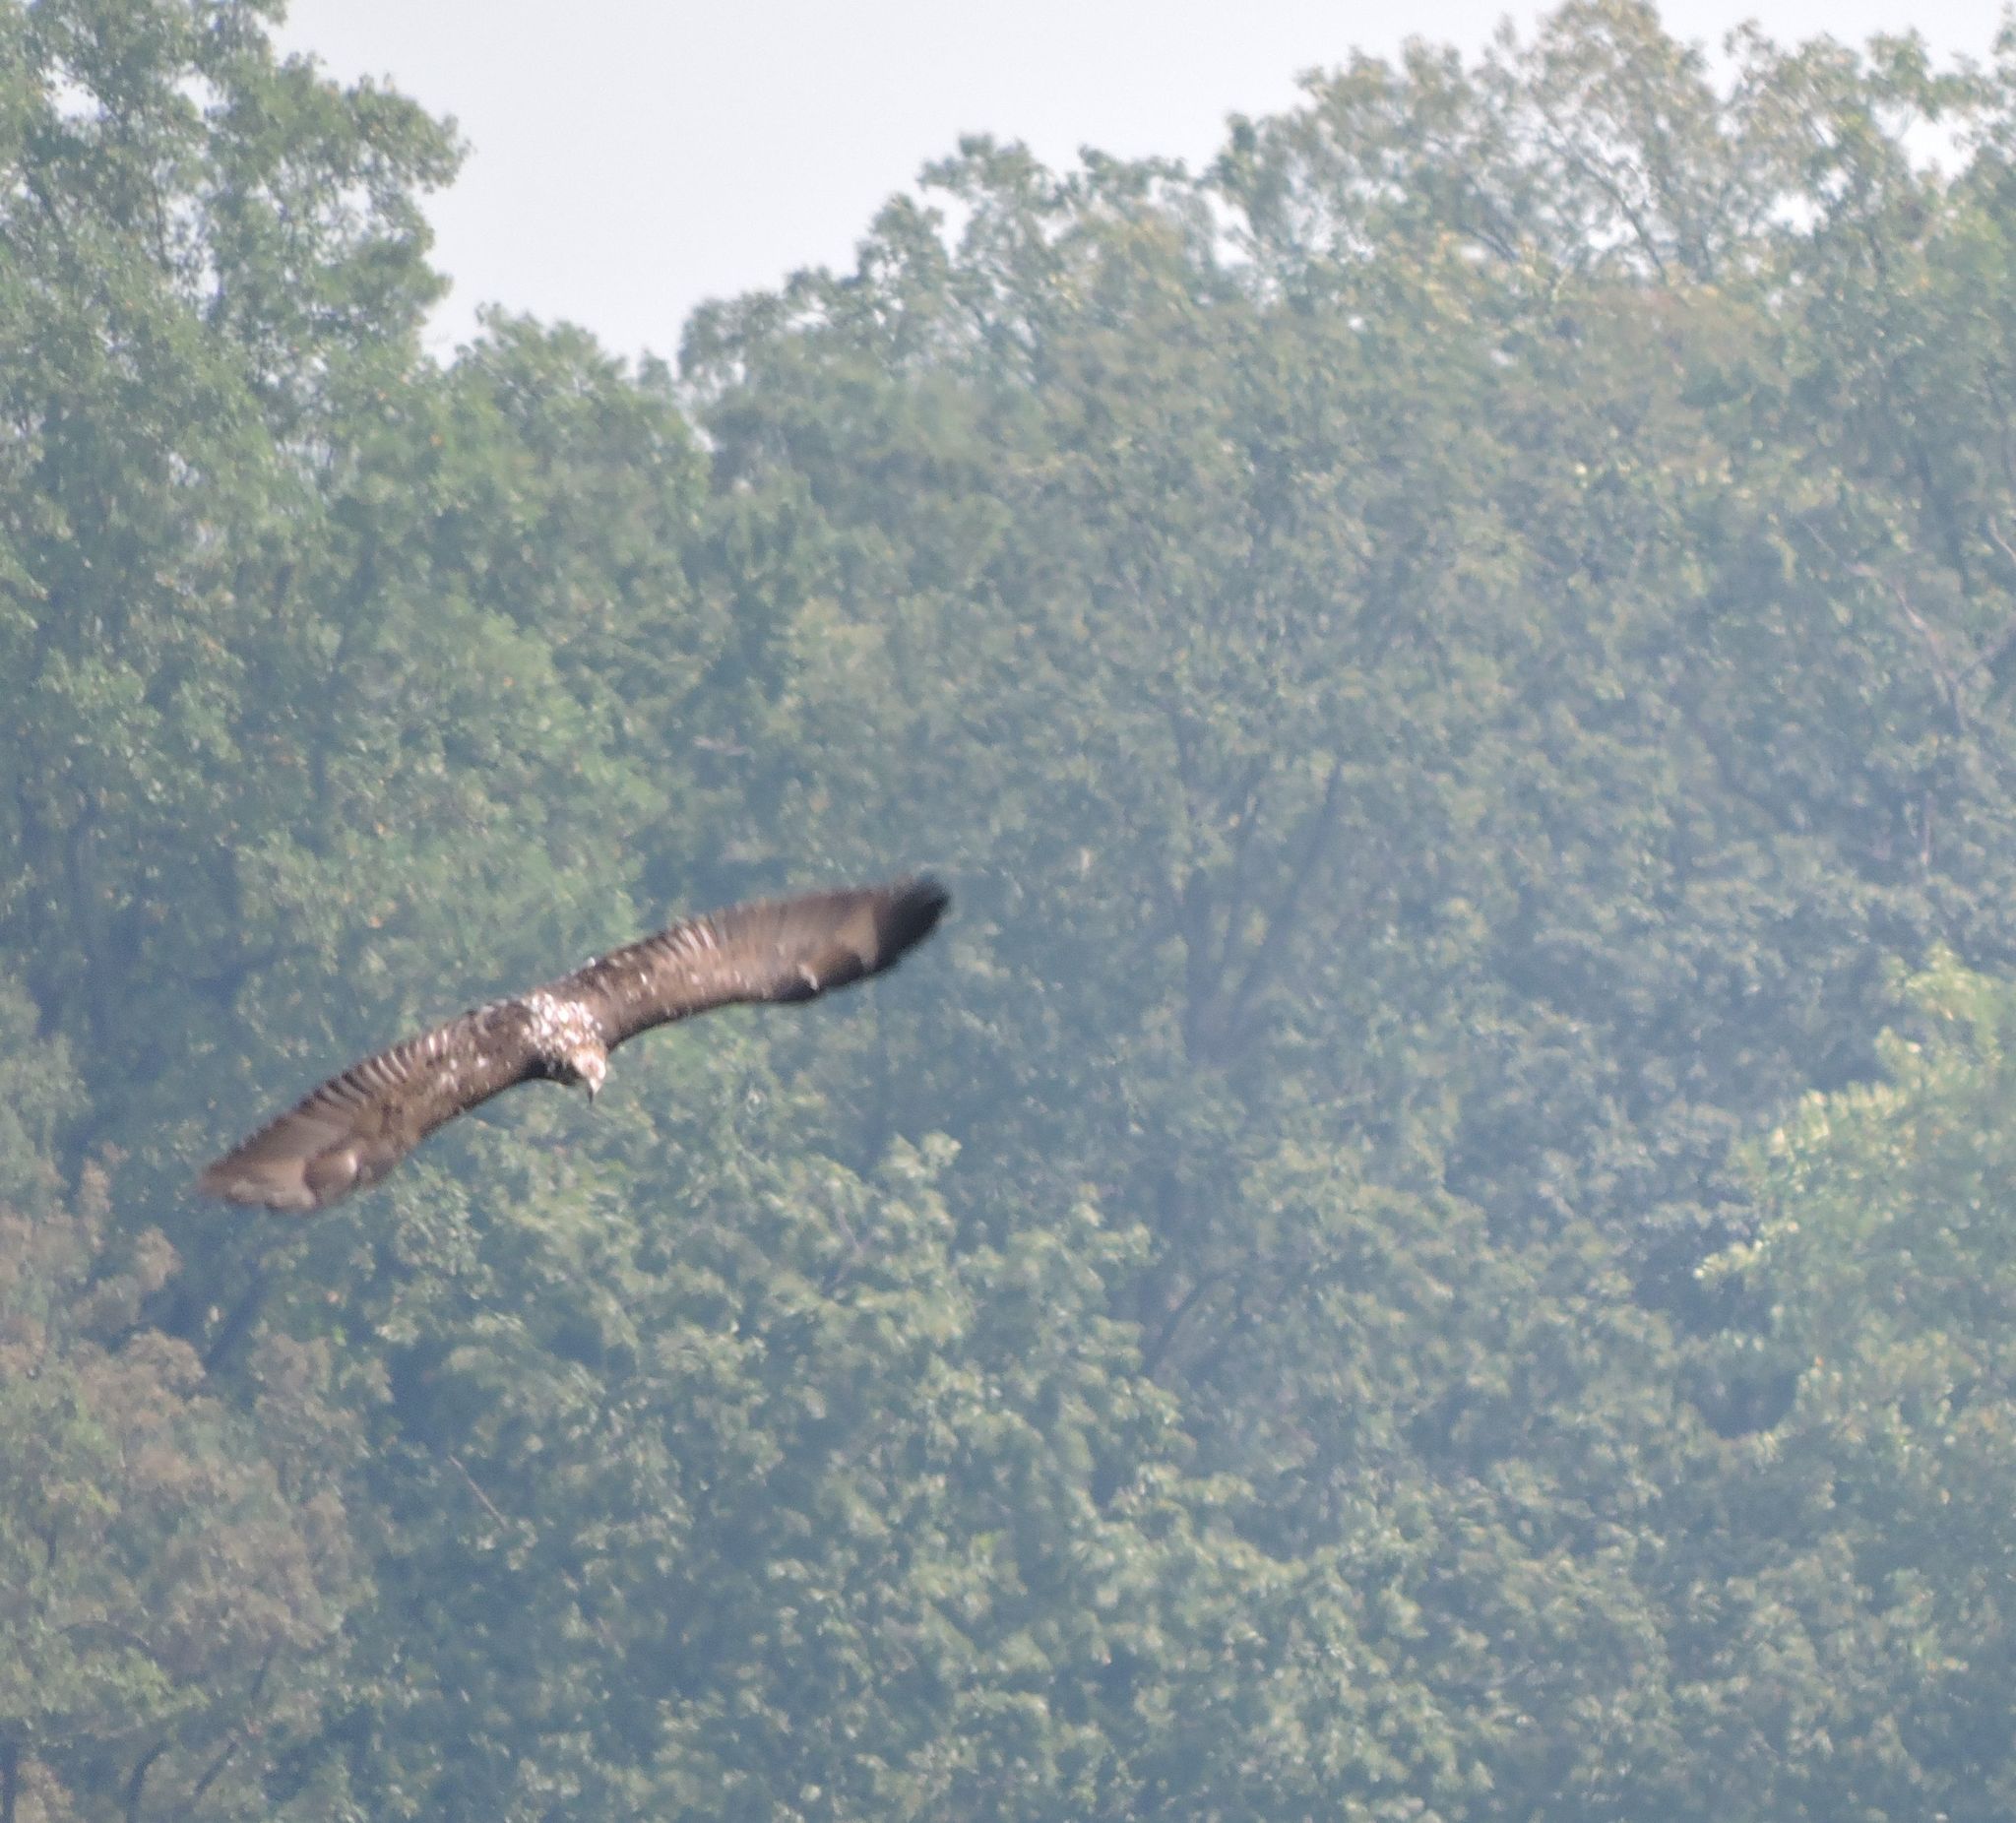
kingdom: Animalia
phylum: Chordata
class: Aves
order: Accipitriformes
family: Accipitridae
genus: Haliaeetus
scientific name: Haliaeetus leucocephalus
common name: Bald eagle
